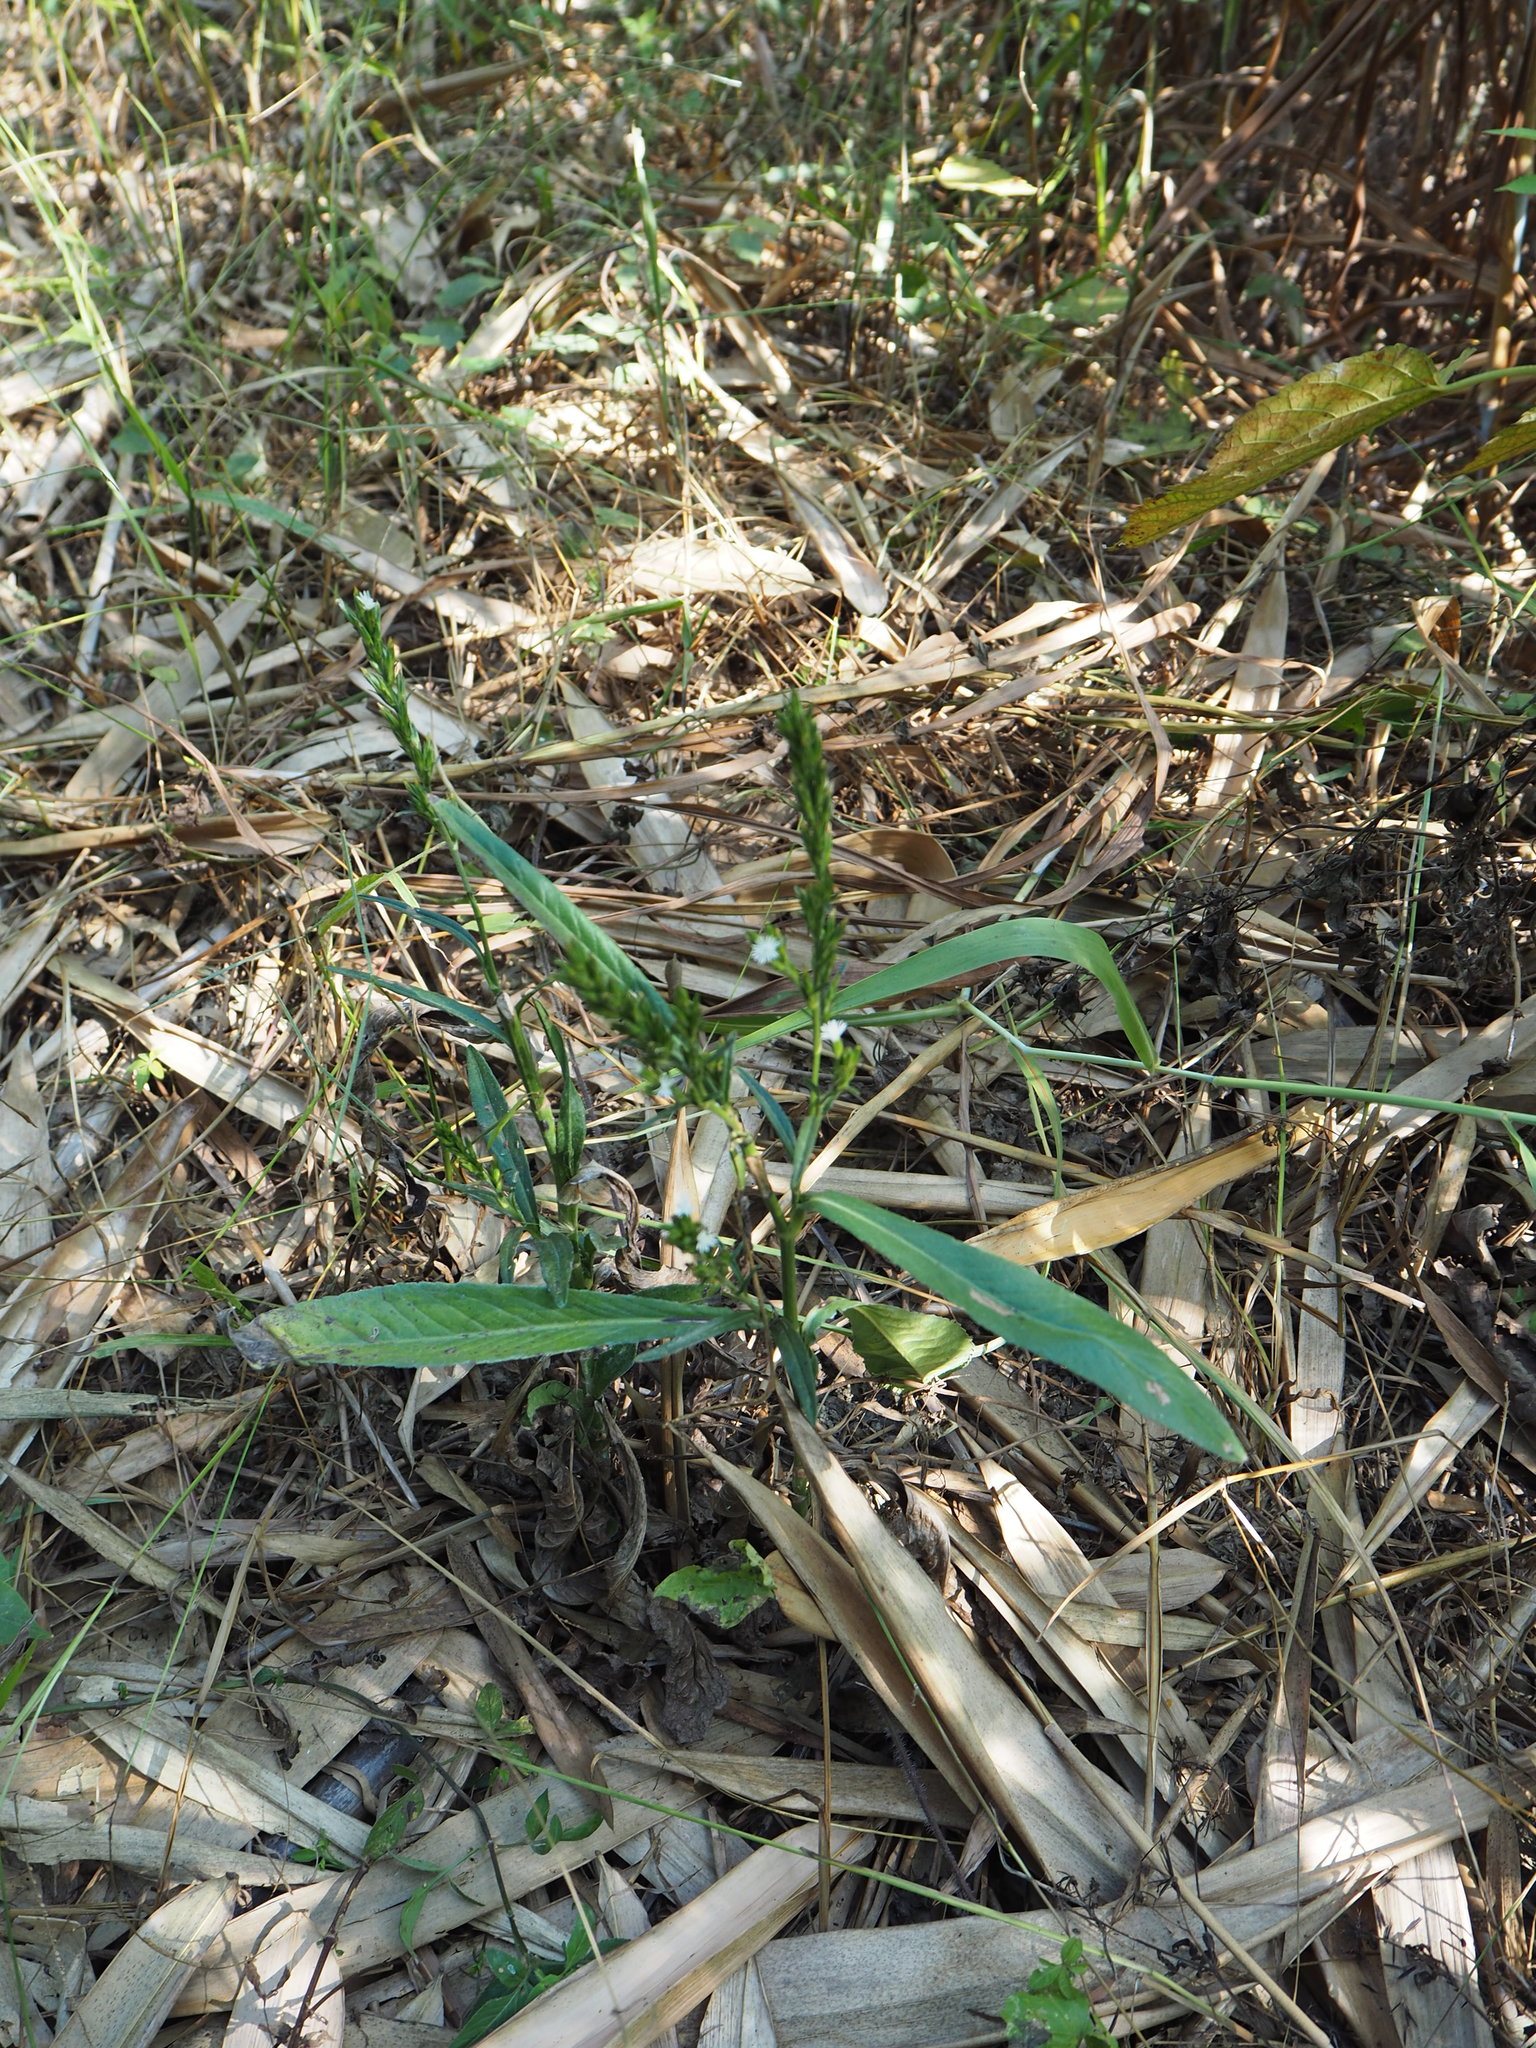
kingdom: Plantae
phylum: Tracheophyta
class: Magnoliopsida
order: Asterales
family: Asteraceae
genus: Pseudelephantopus
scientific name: Pseudelephantopus spicatus
